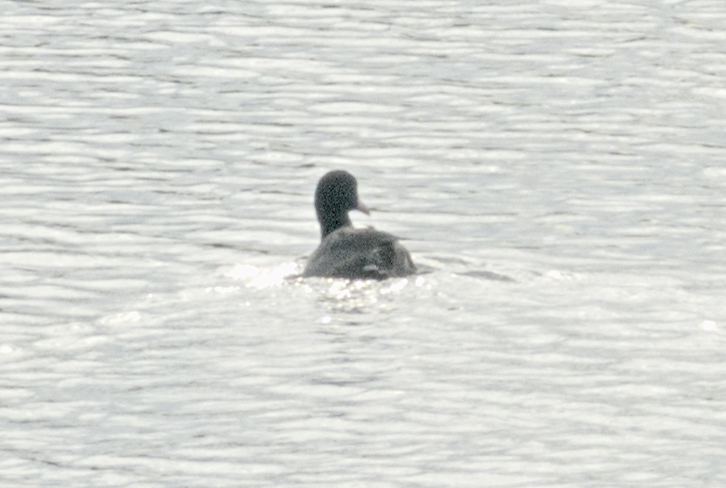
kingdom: Animalia
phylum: Chordata
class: Aves
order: Gruiformes
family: Rallidae
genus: Fulica
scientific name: Fulica atra
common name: Eurasian coot
